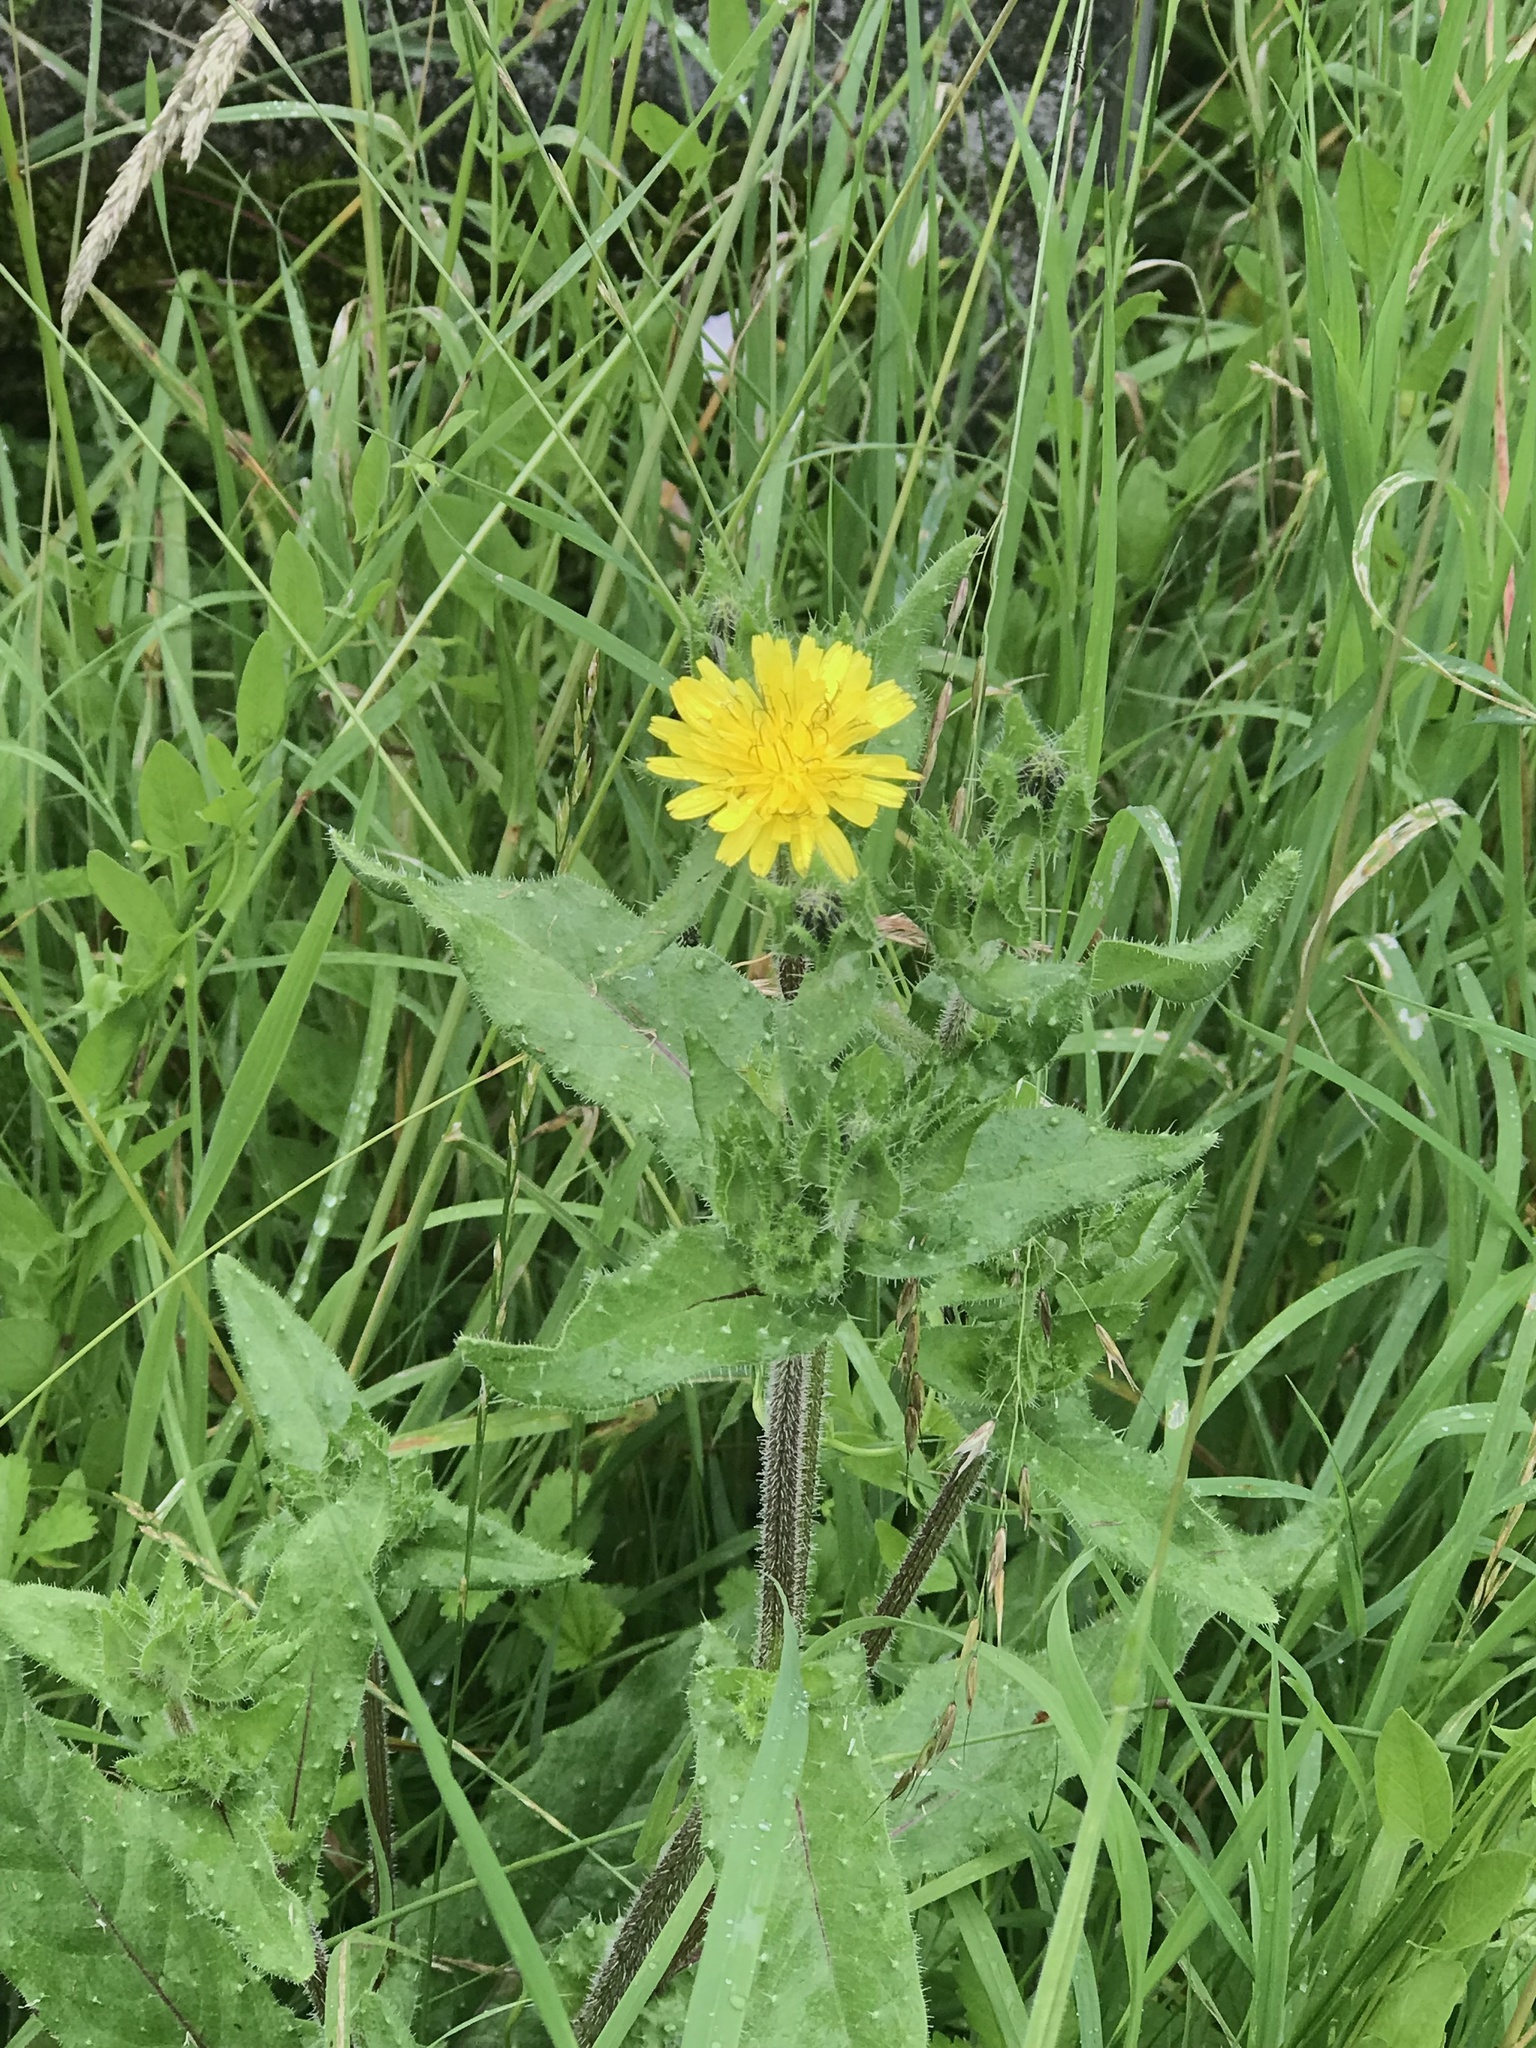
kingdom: Plantae
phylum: Tracheophyta
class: Magnoliopsida
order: Asterales
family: Asteraceae
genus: Helminthotheca
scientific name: Helminthotheca echioides
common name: Ox-tongue
